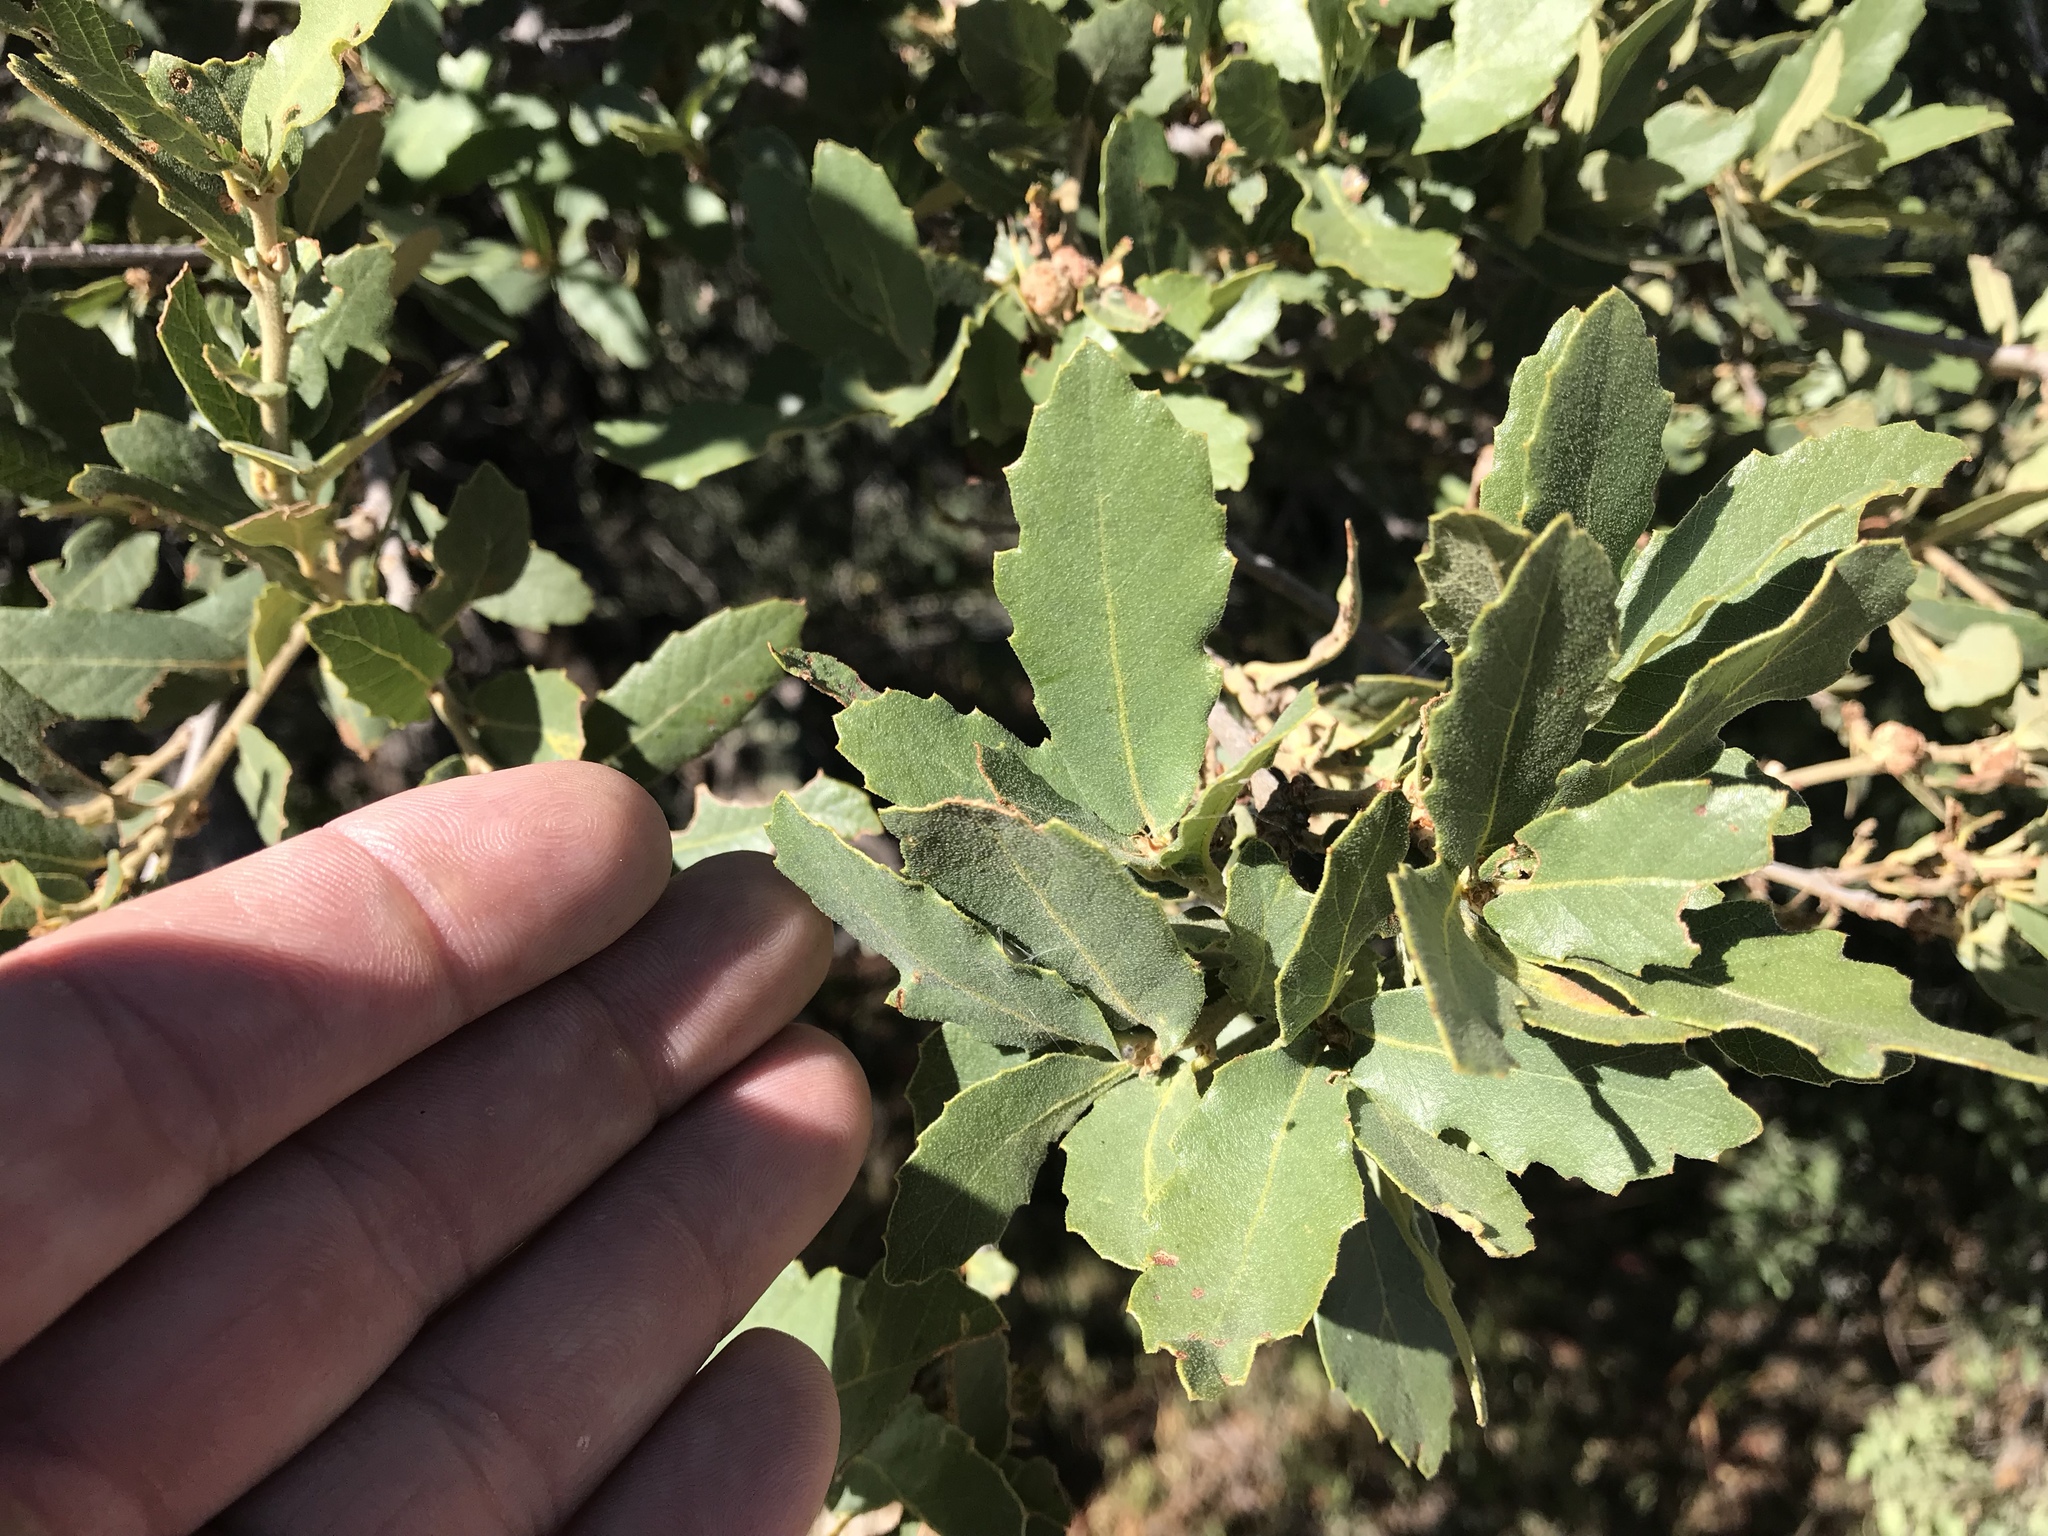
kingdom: Plantae
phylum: Tracheophyta
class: Magnoliopsida
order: Fagales
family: Fagaceae
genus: Quercus
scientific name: Quercus turbinella
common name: Sonoran scrub oak
